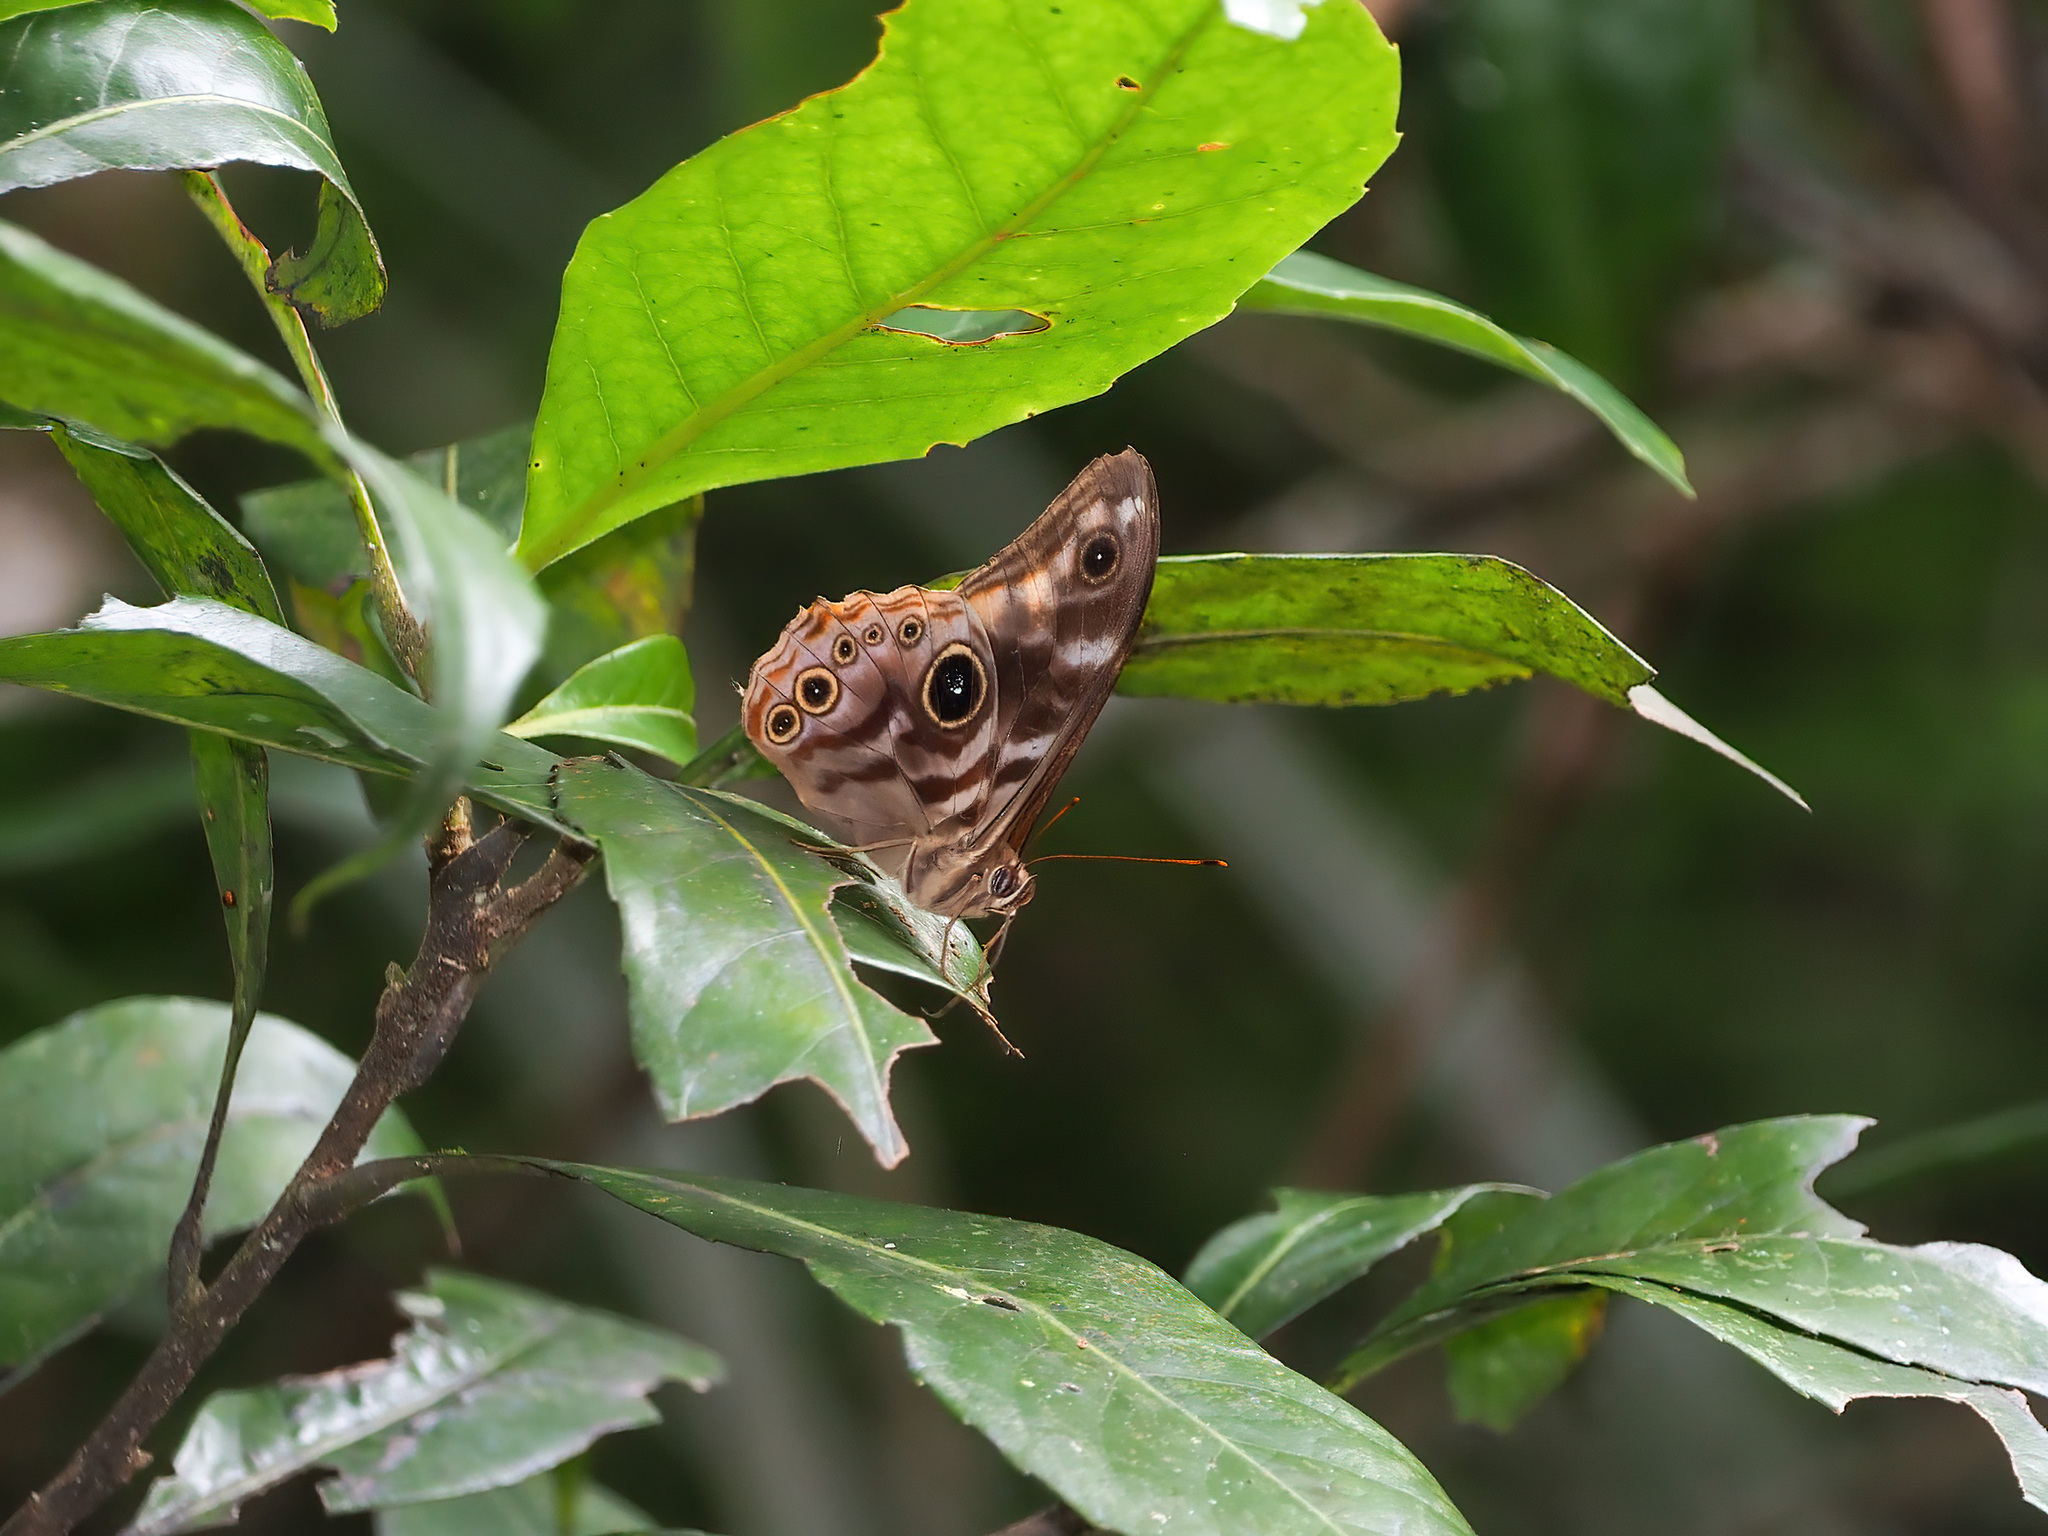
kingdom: Animalia
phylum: Arthropoda
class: Insecta
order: Lepidoptera
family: Nymphalidae
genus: Lethe
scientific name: Lethe darena
